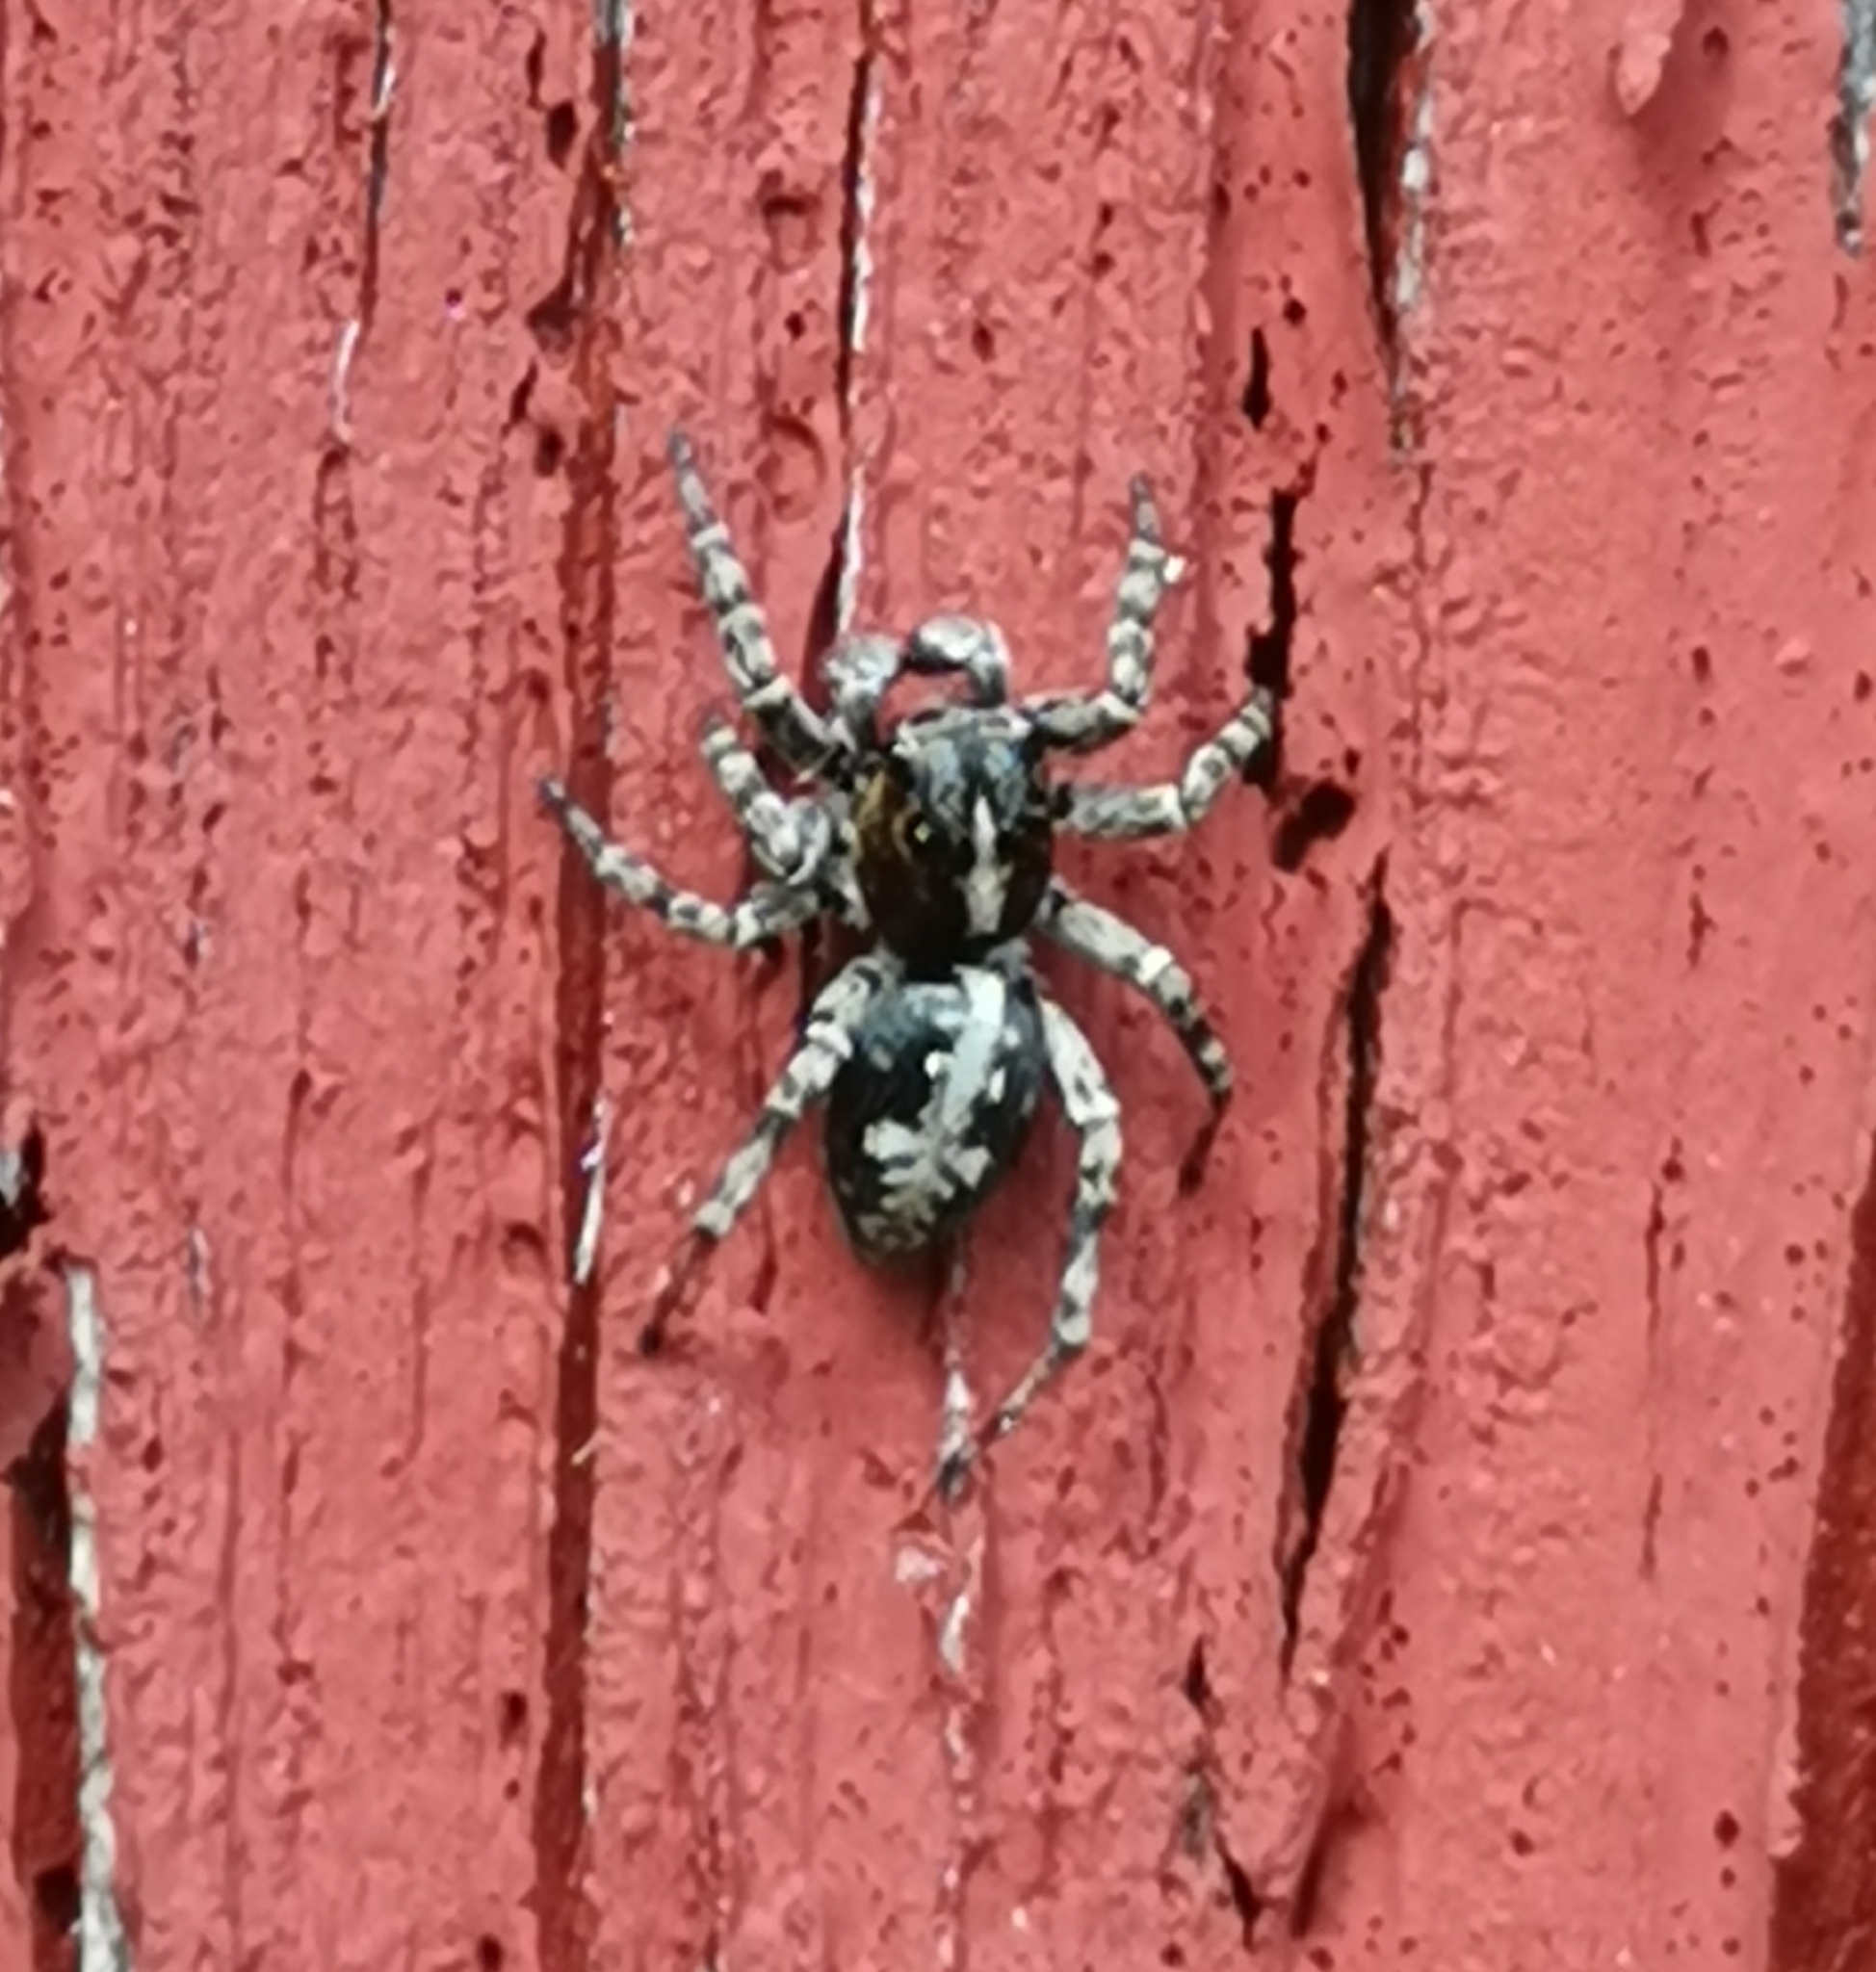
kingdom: Animalia
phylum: Arthropoda
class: Arachnida
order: Araneae
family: Salticidae
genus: Attulus
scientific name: Attulus terebratus
